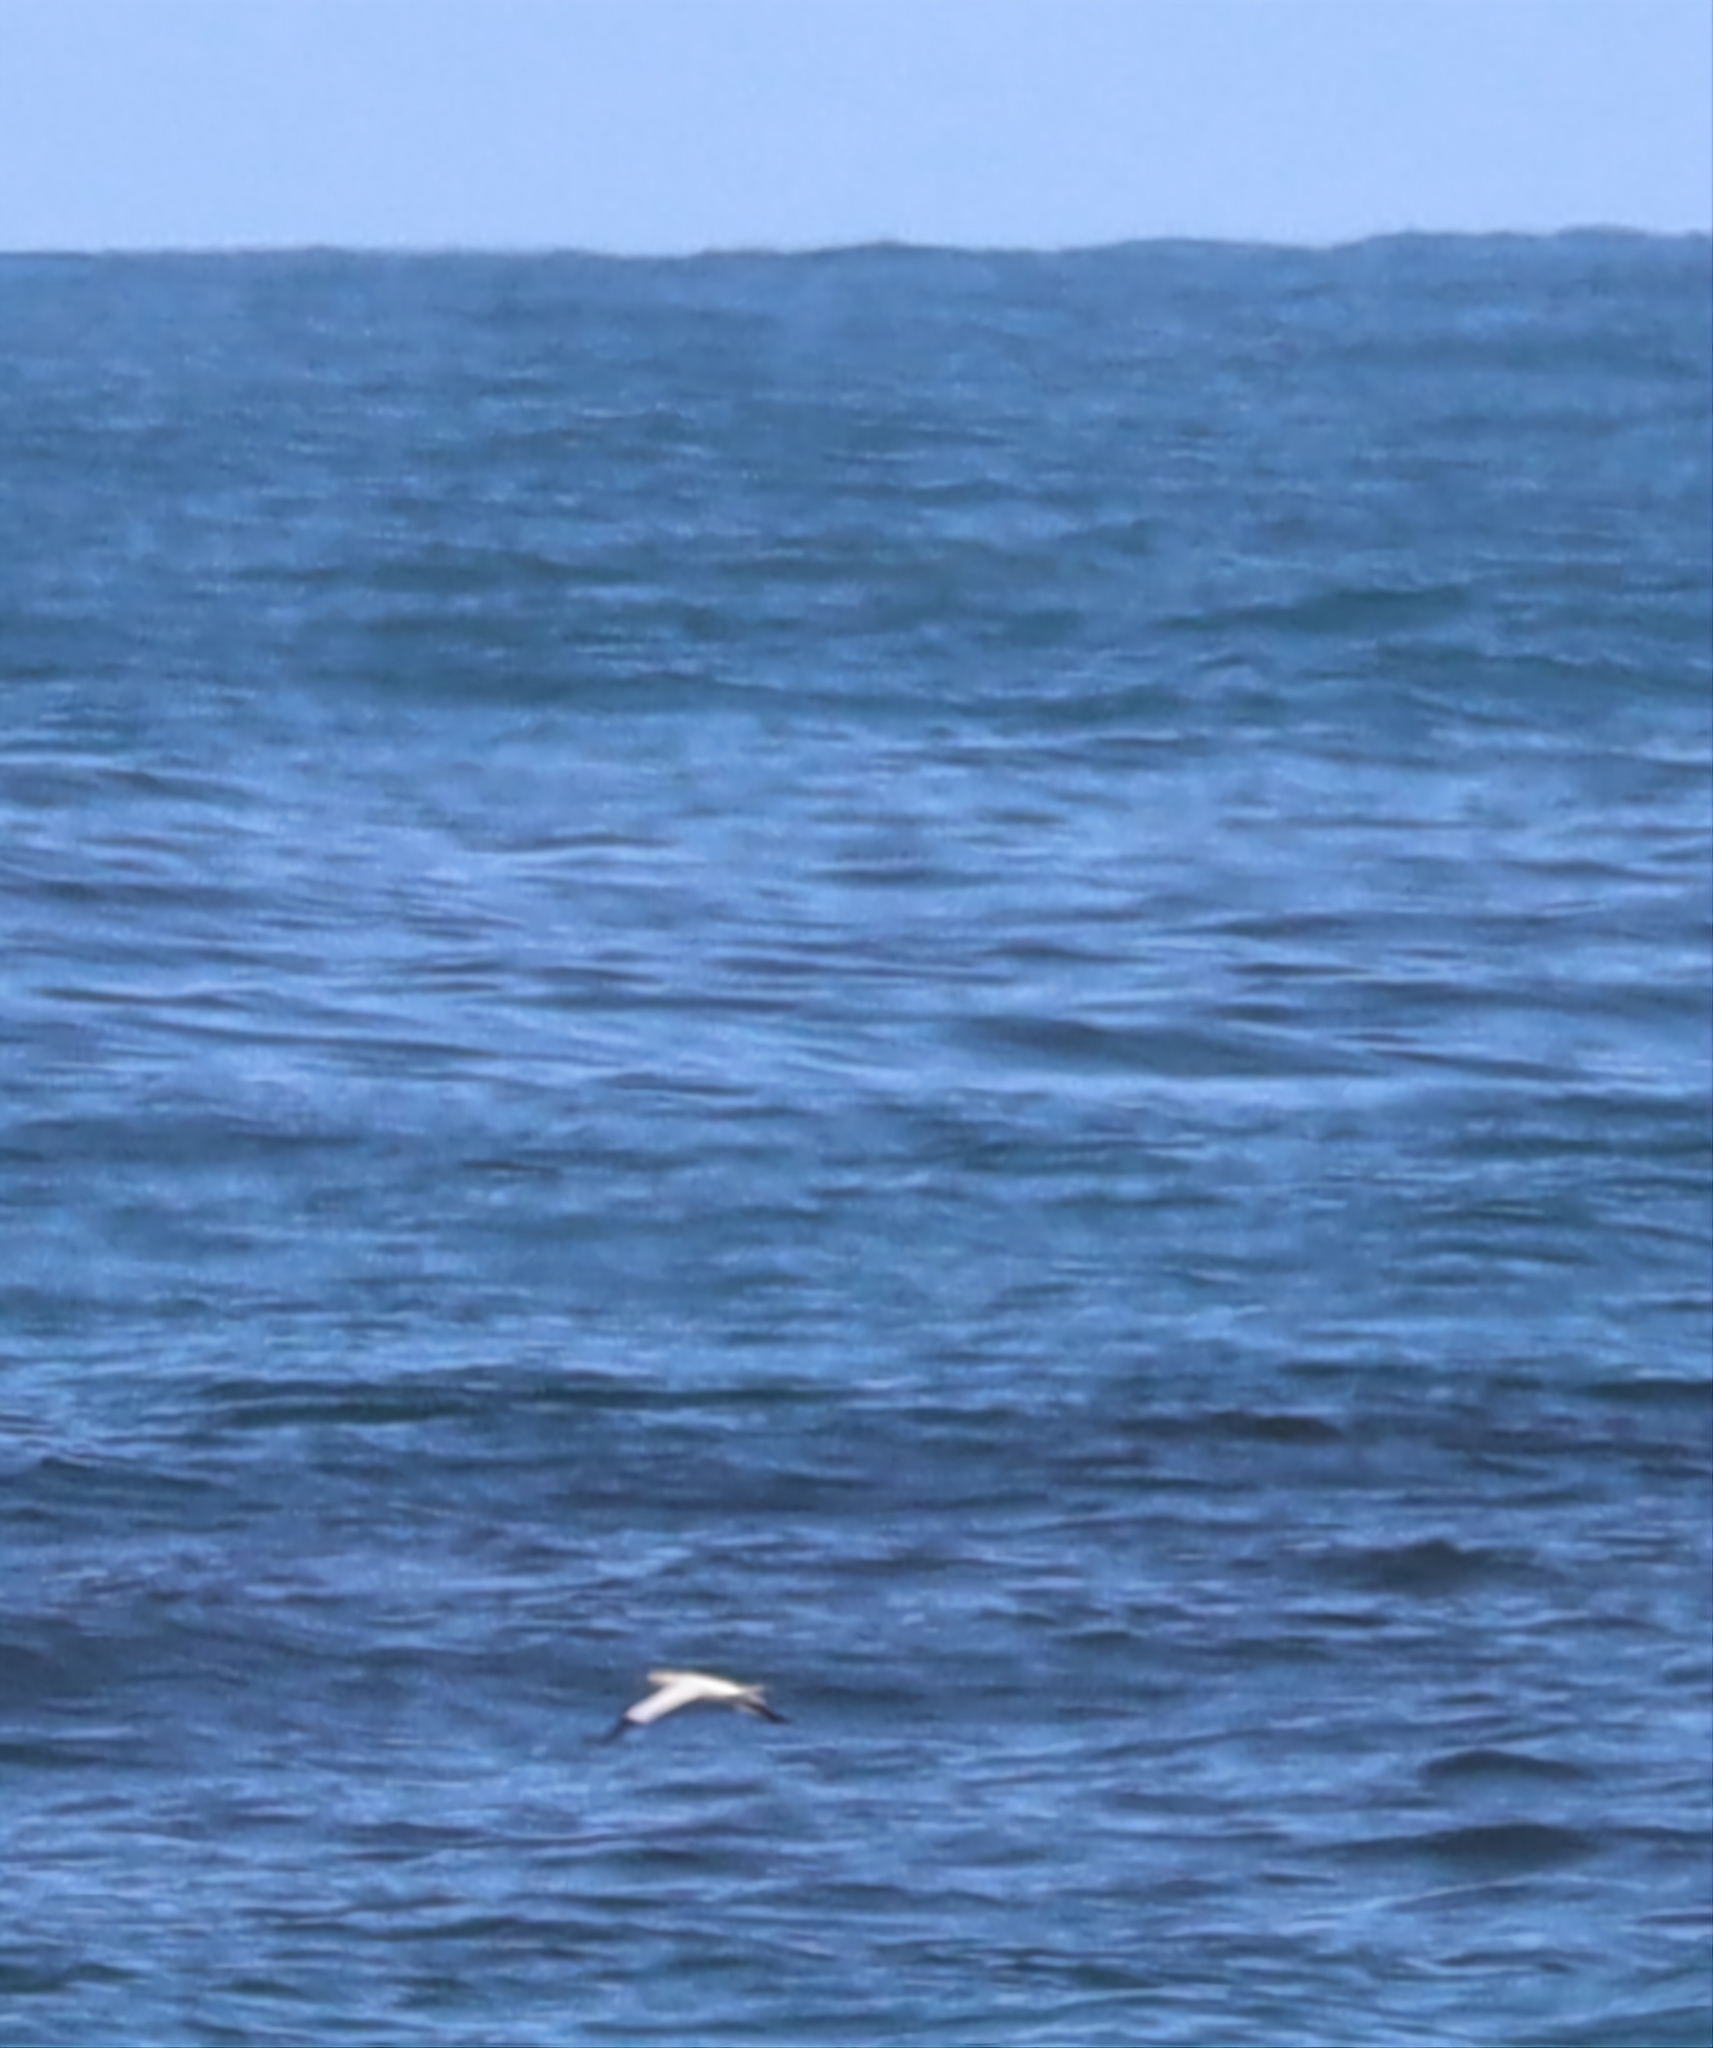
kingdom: Animalia
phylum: Chordata
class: Aves
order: Suliformes
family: Sulidae
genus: Morus
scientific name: Morus bassanus
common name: Northern gannet
